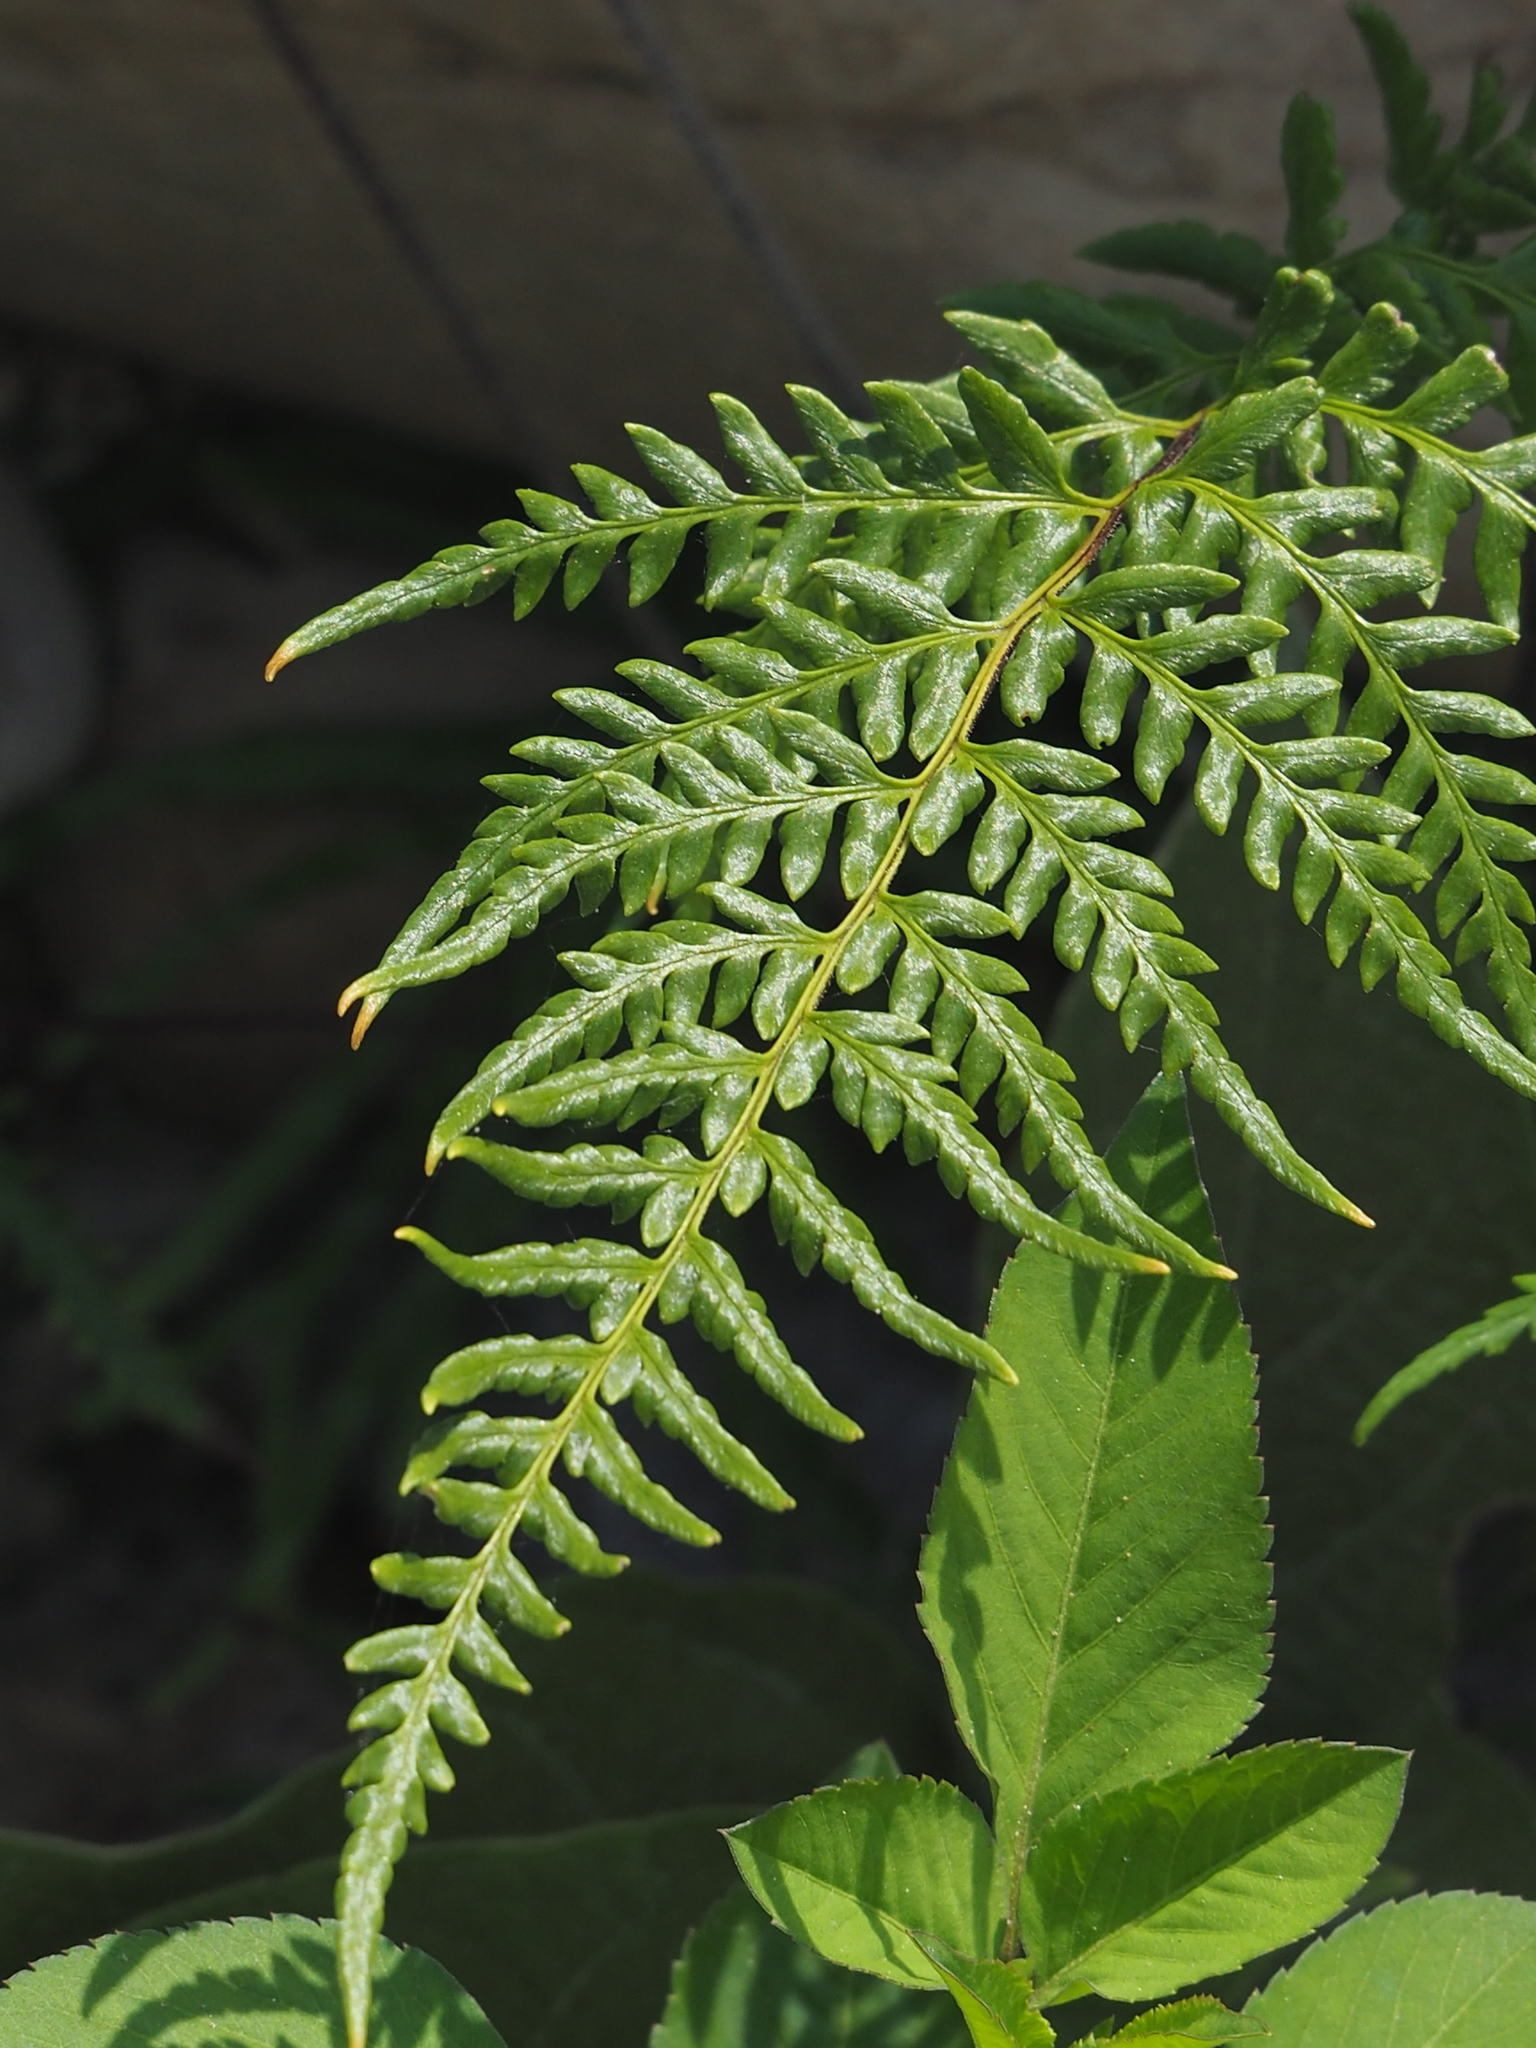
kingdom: Plantae
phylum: Tracheophyta
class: Polypodiopsida
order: Polypodiales
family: Pteridaceae
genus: Pityrogramma
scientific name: Pityrogramma calomelanos
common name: Dixie silverback fern
